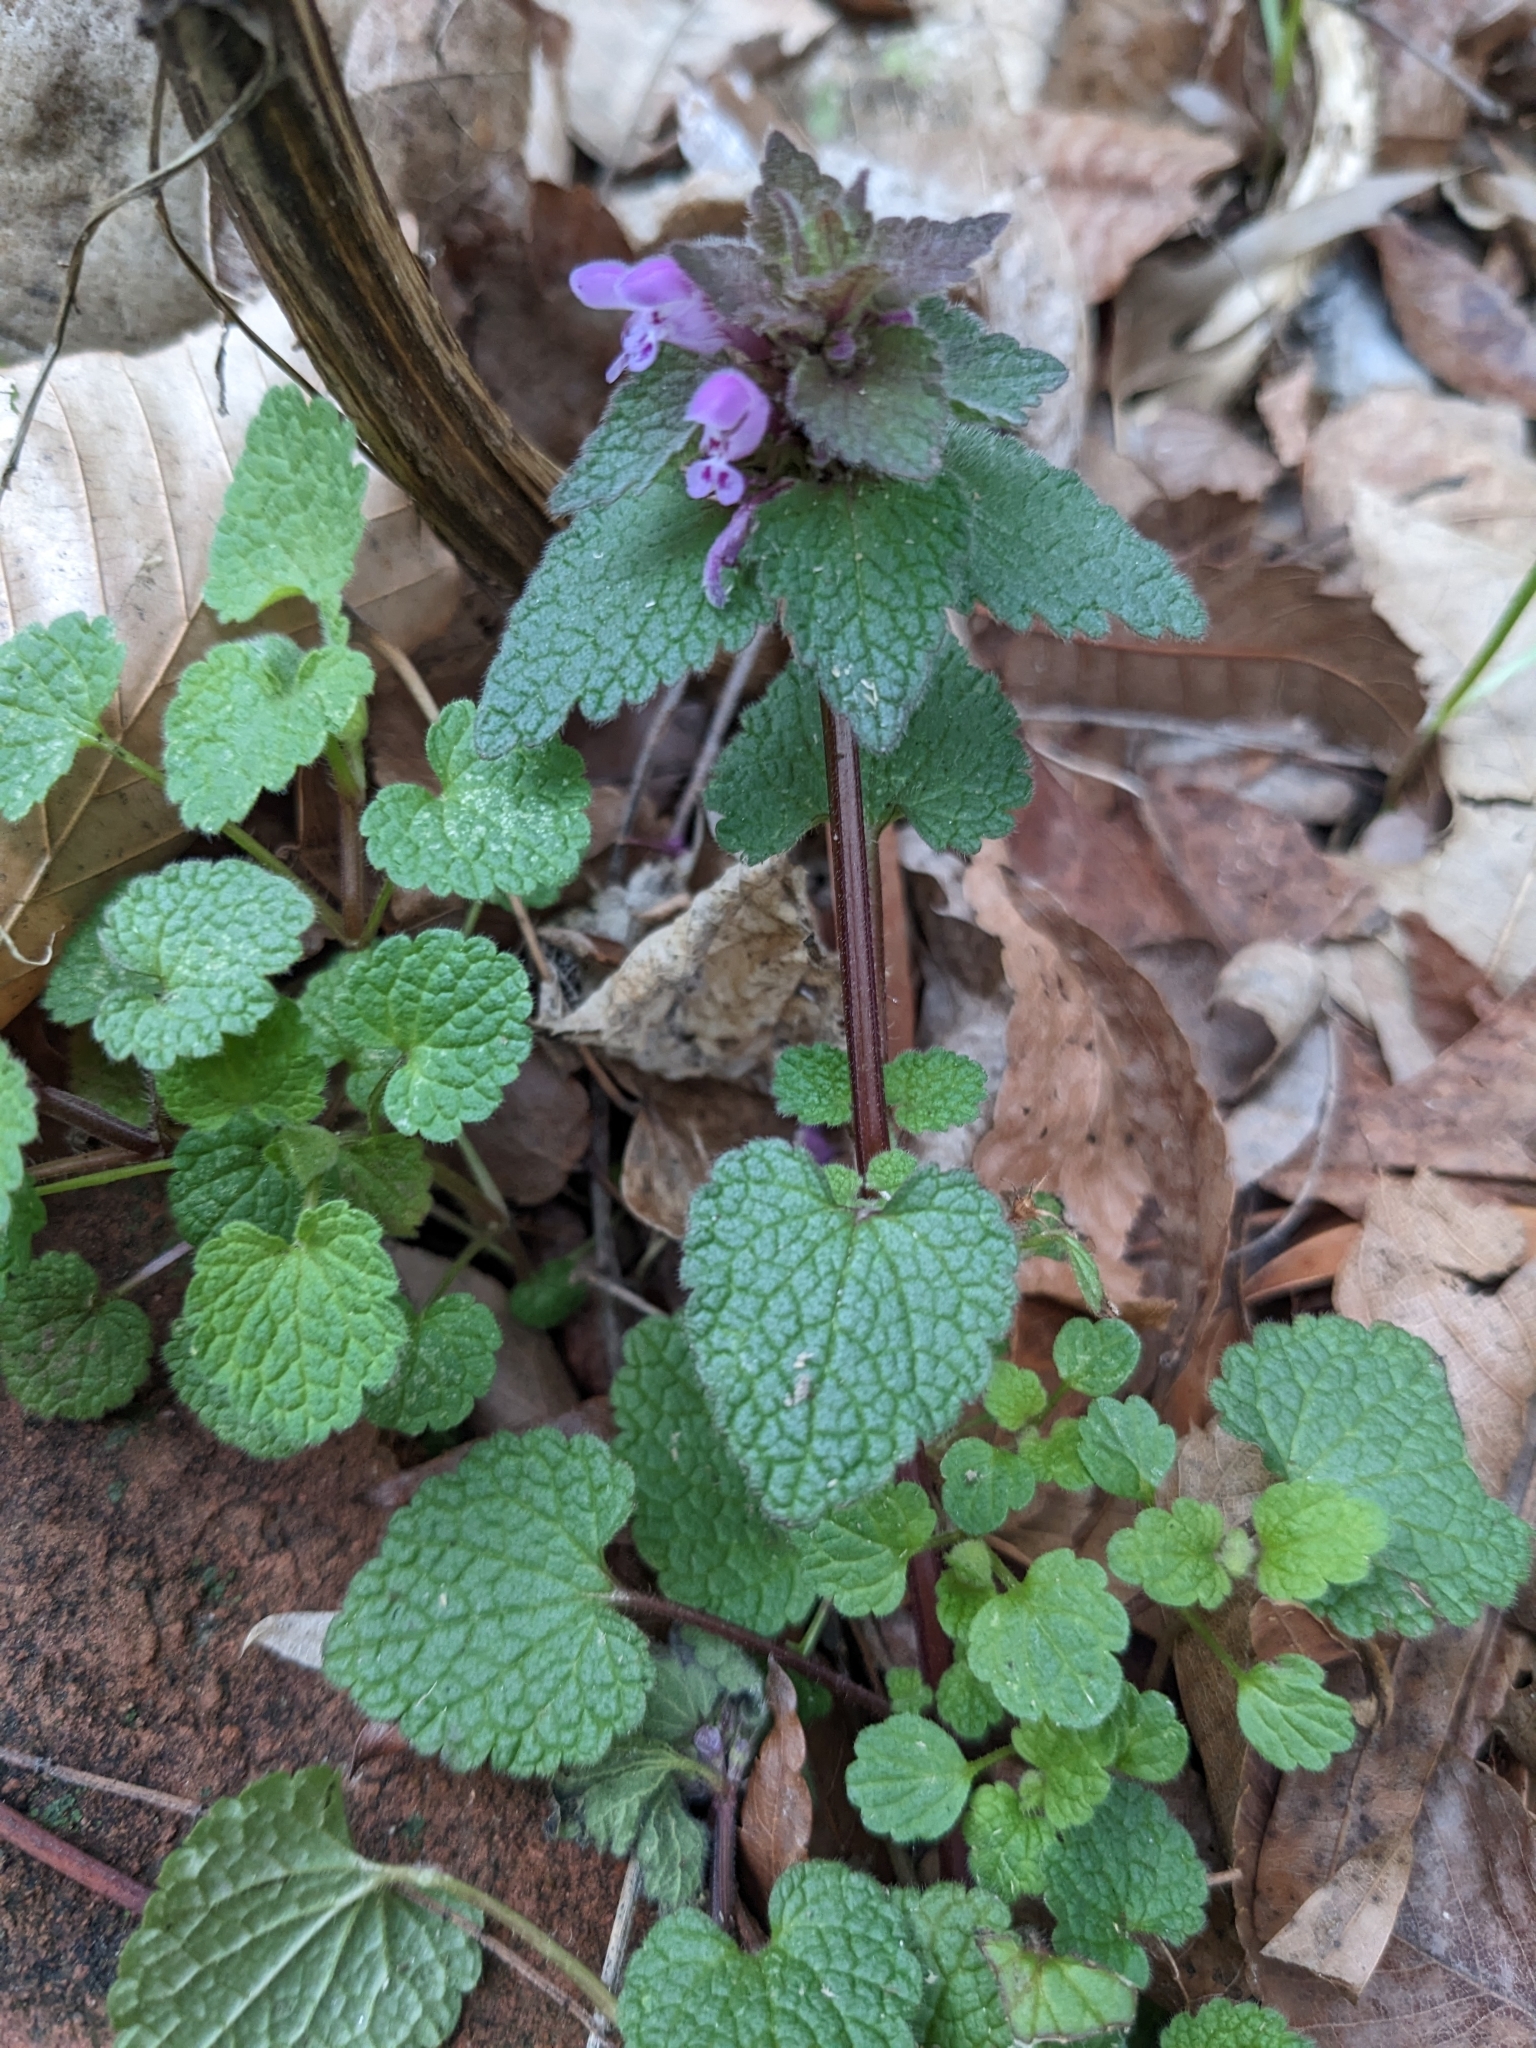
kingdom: Plantae
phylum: Tracheophyta
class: Magnoliopsida
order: Lamiales
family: Lamiaceae
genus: Lamium
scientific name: Lamium purpureum
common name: Red dead-nettle
